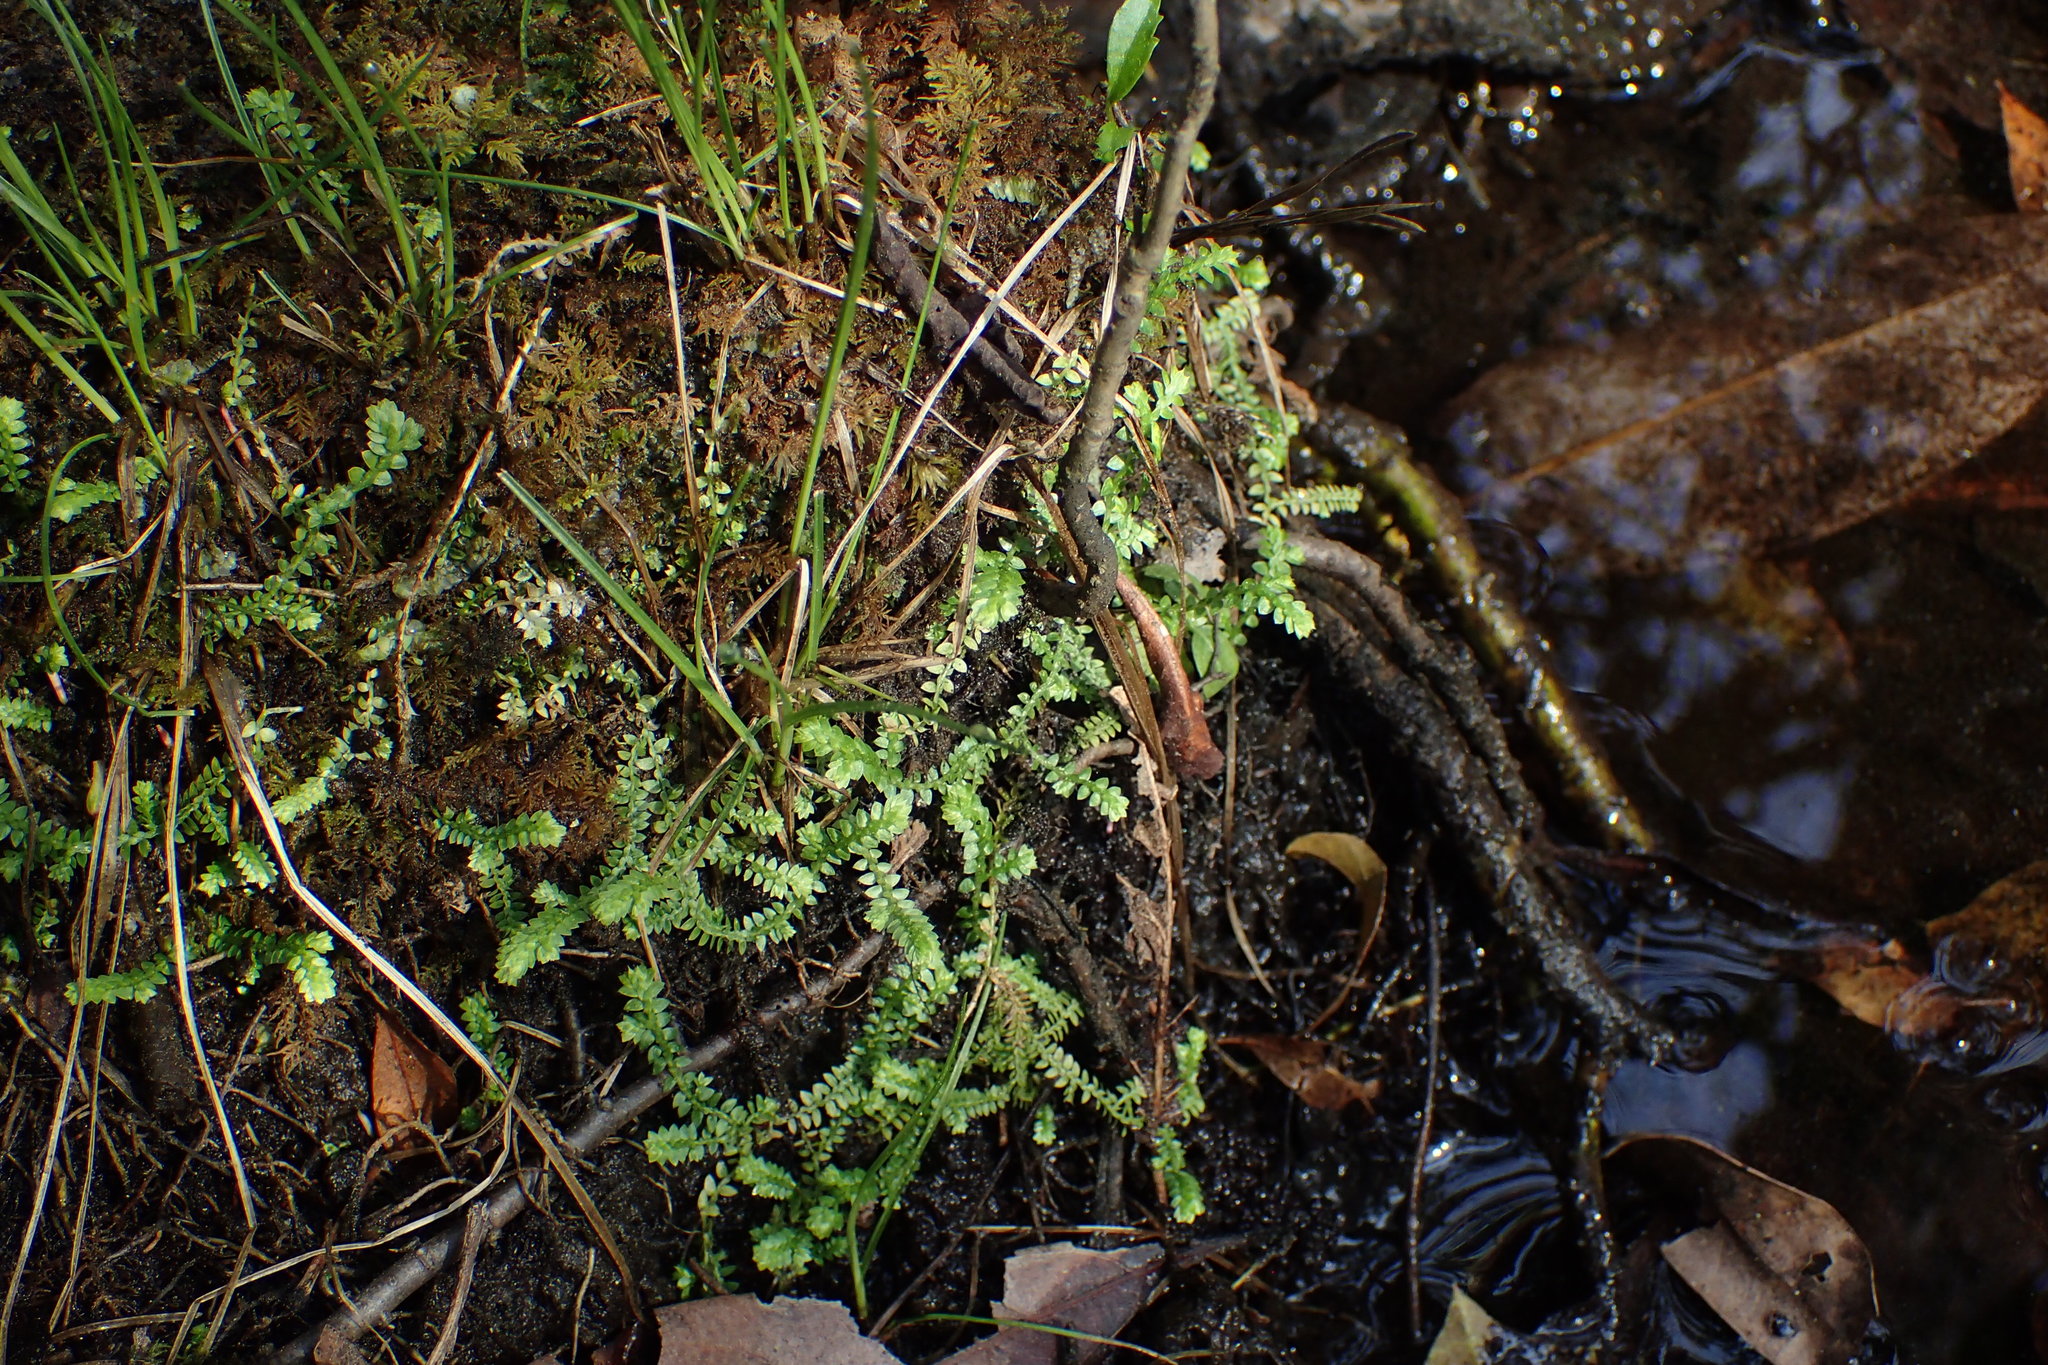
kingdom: Plantae
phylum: Tracheophyta
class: Lycopodiopsida
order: Selaginellales
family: Selaginellaceae
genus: Selaginella
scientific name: Selaginella apoda
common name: Creeping spikemoss
